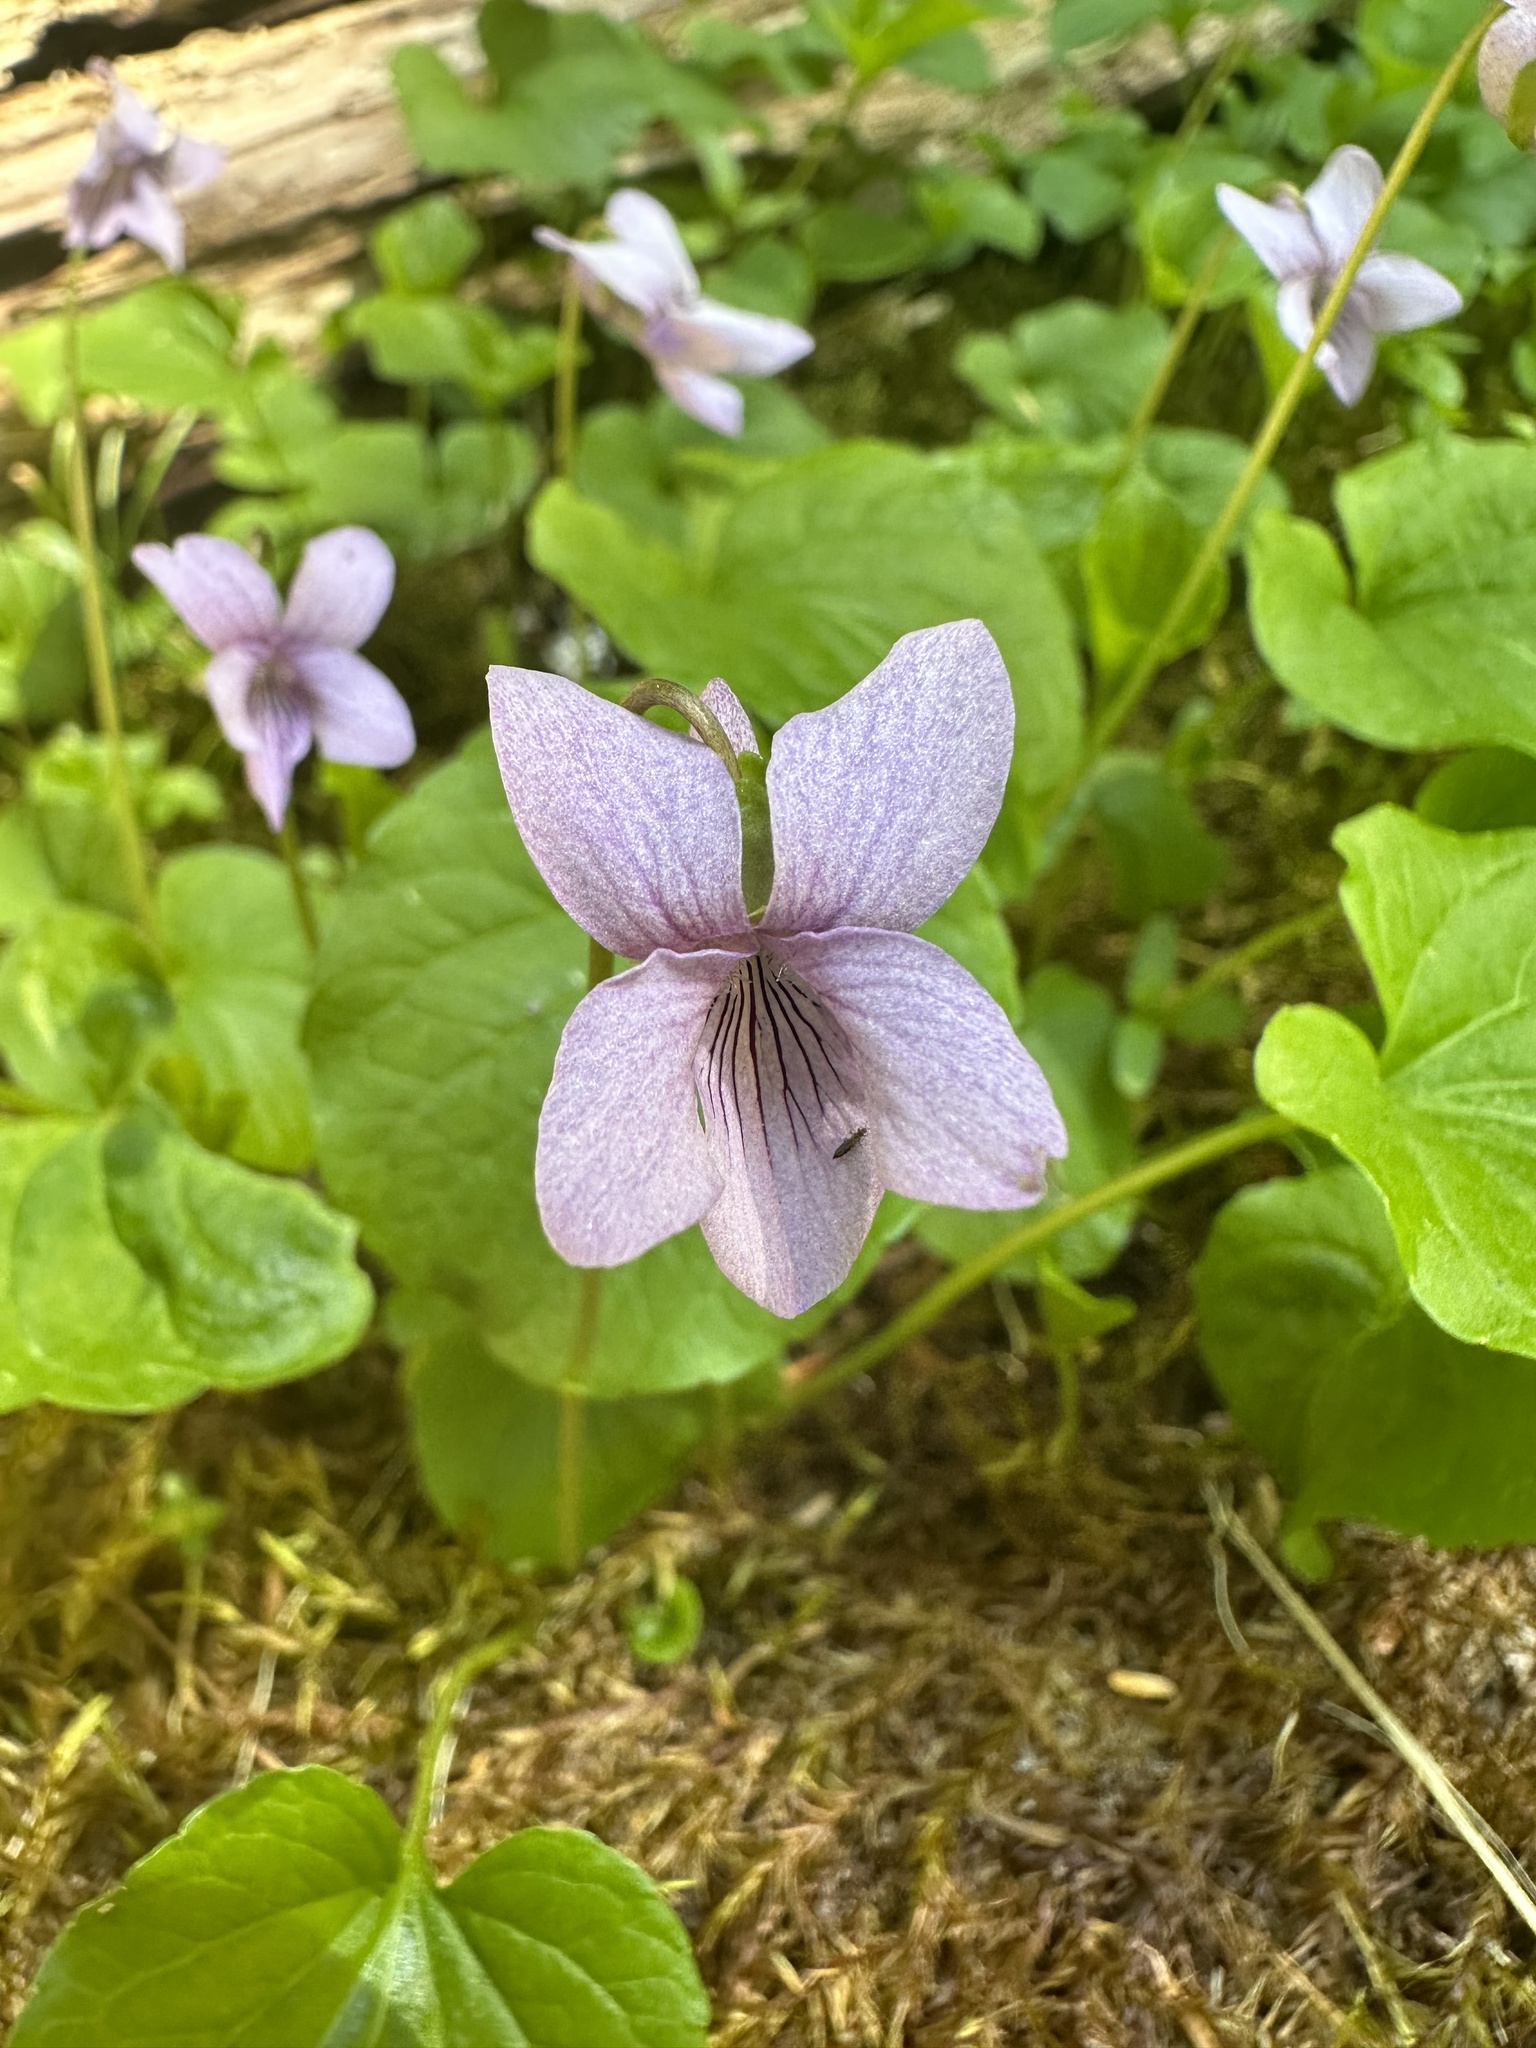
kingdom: Plantae
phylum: Tracheophyta
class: Magnoliopsida
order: Malpighiales
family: Violaceae
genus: Viola
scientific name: Viola palustris
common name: Marsh violet
